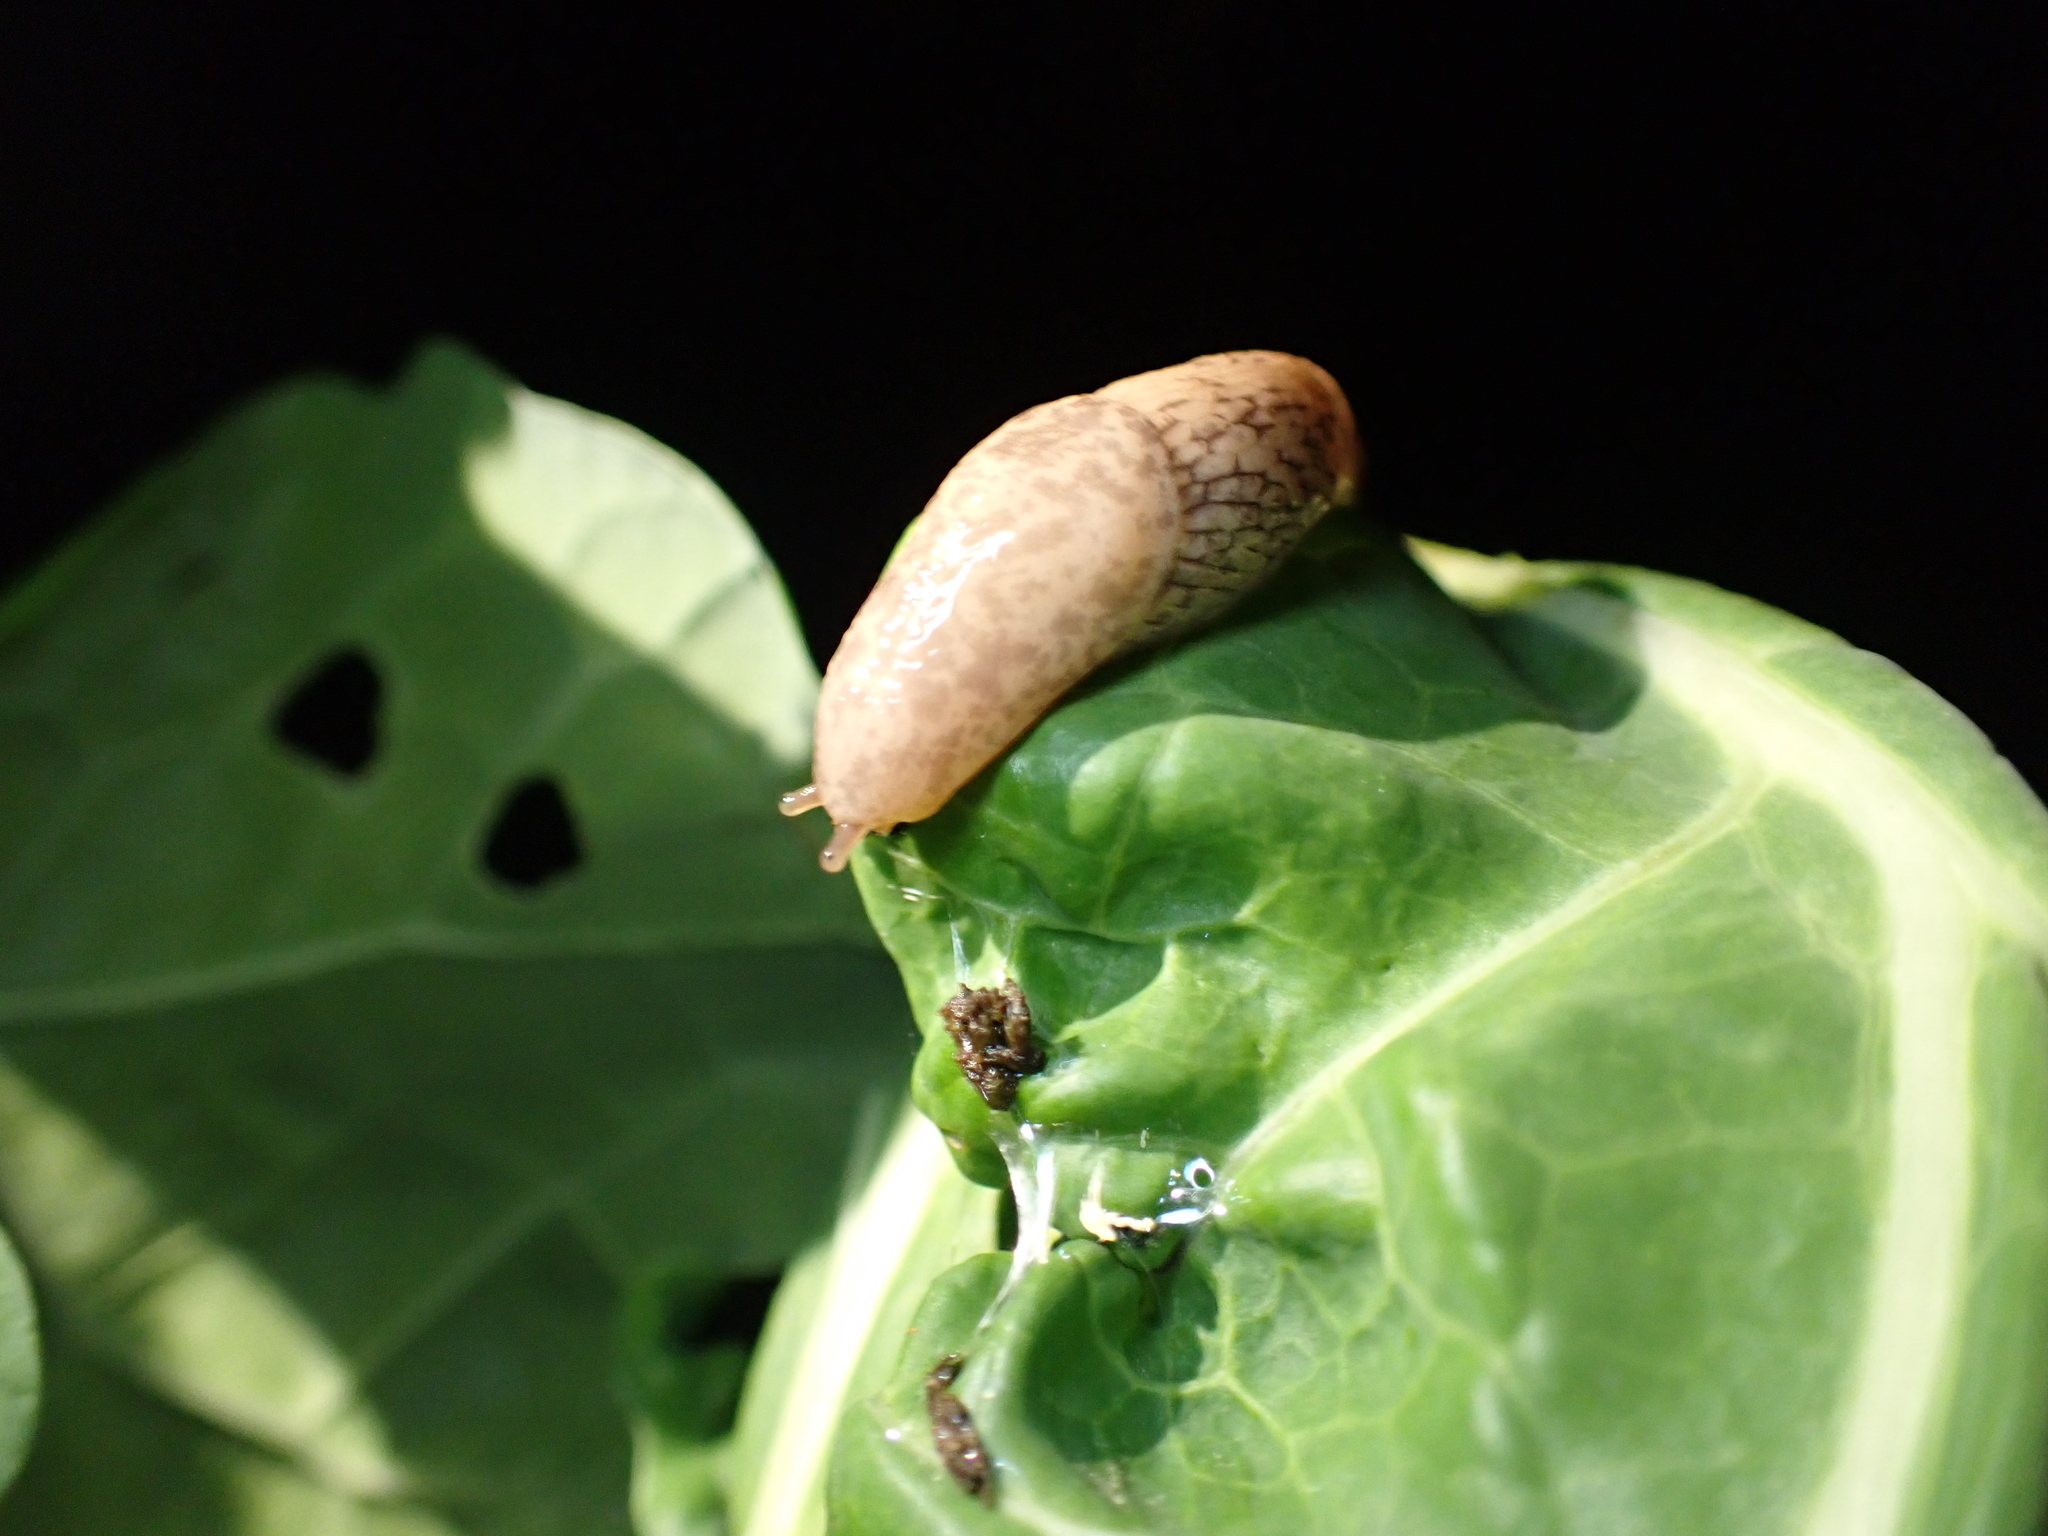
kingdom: Animalia
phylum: Mollusca
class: Gastropoda
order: Stylommatophora
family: Agriolimacidae
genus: Deroceras
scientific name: Deroceras reticulatum
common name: Gray field slug
